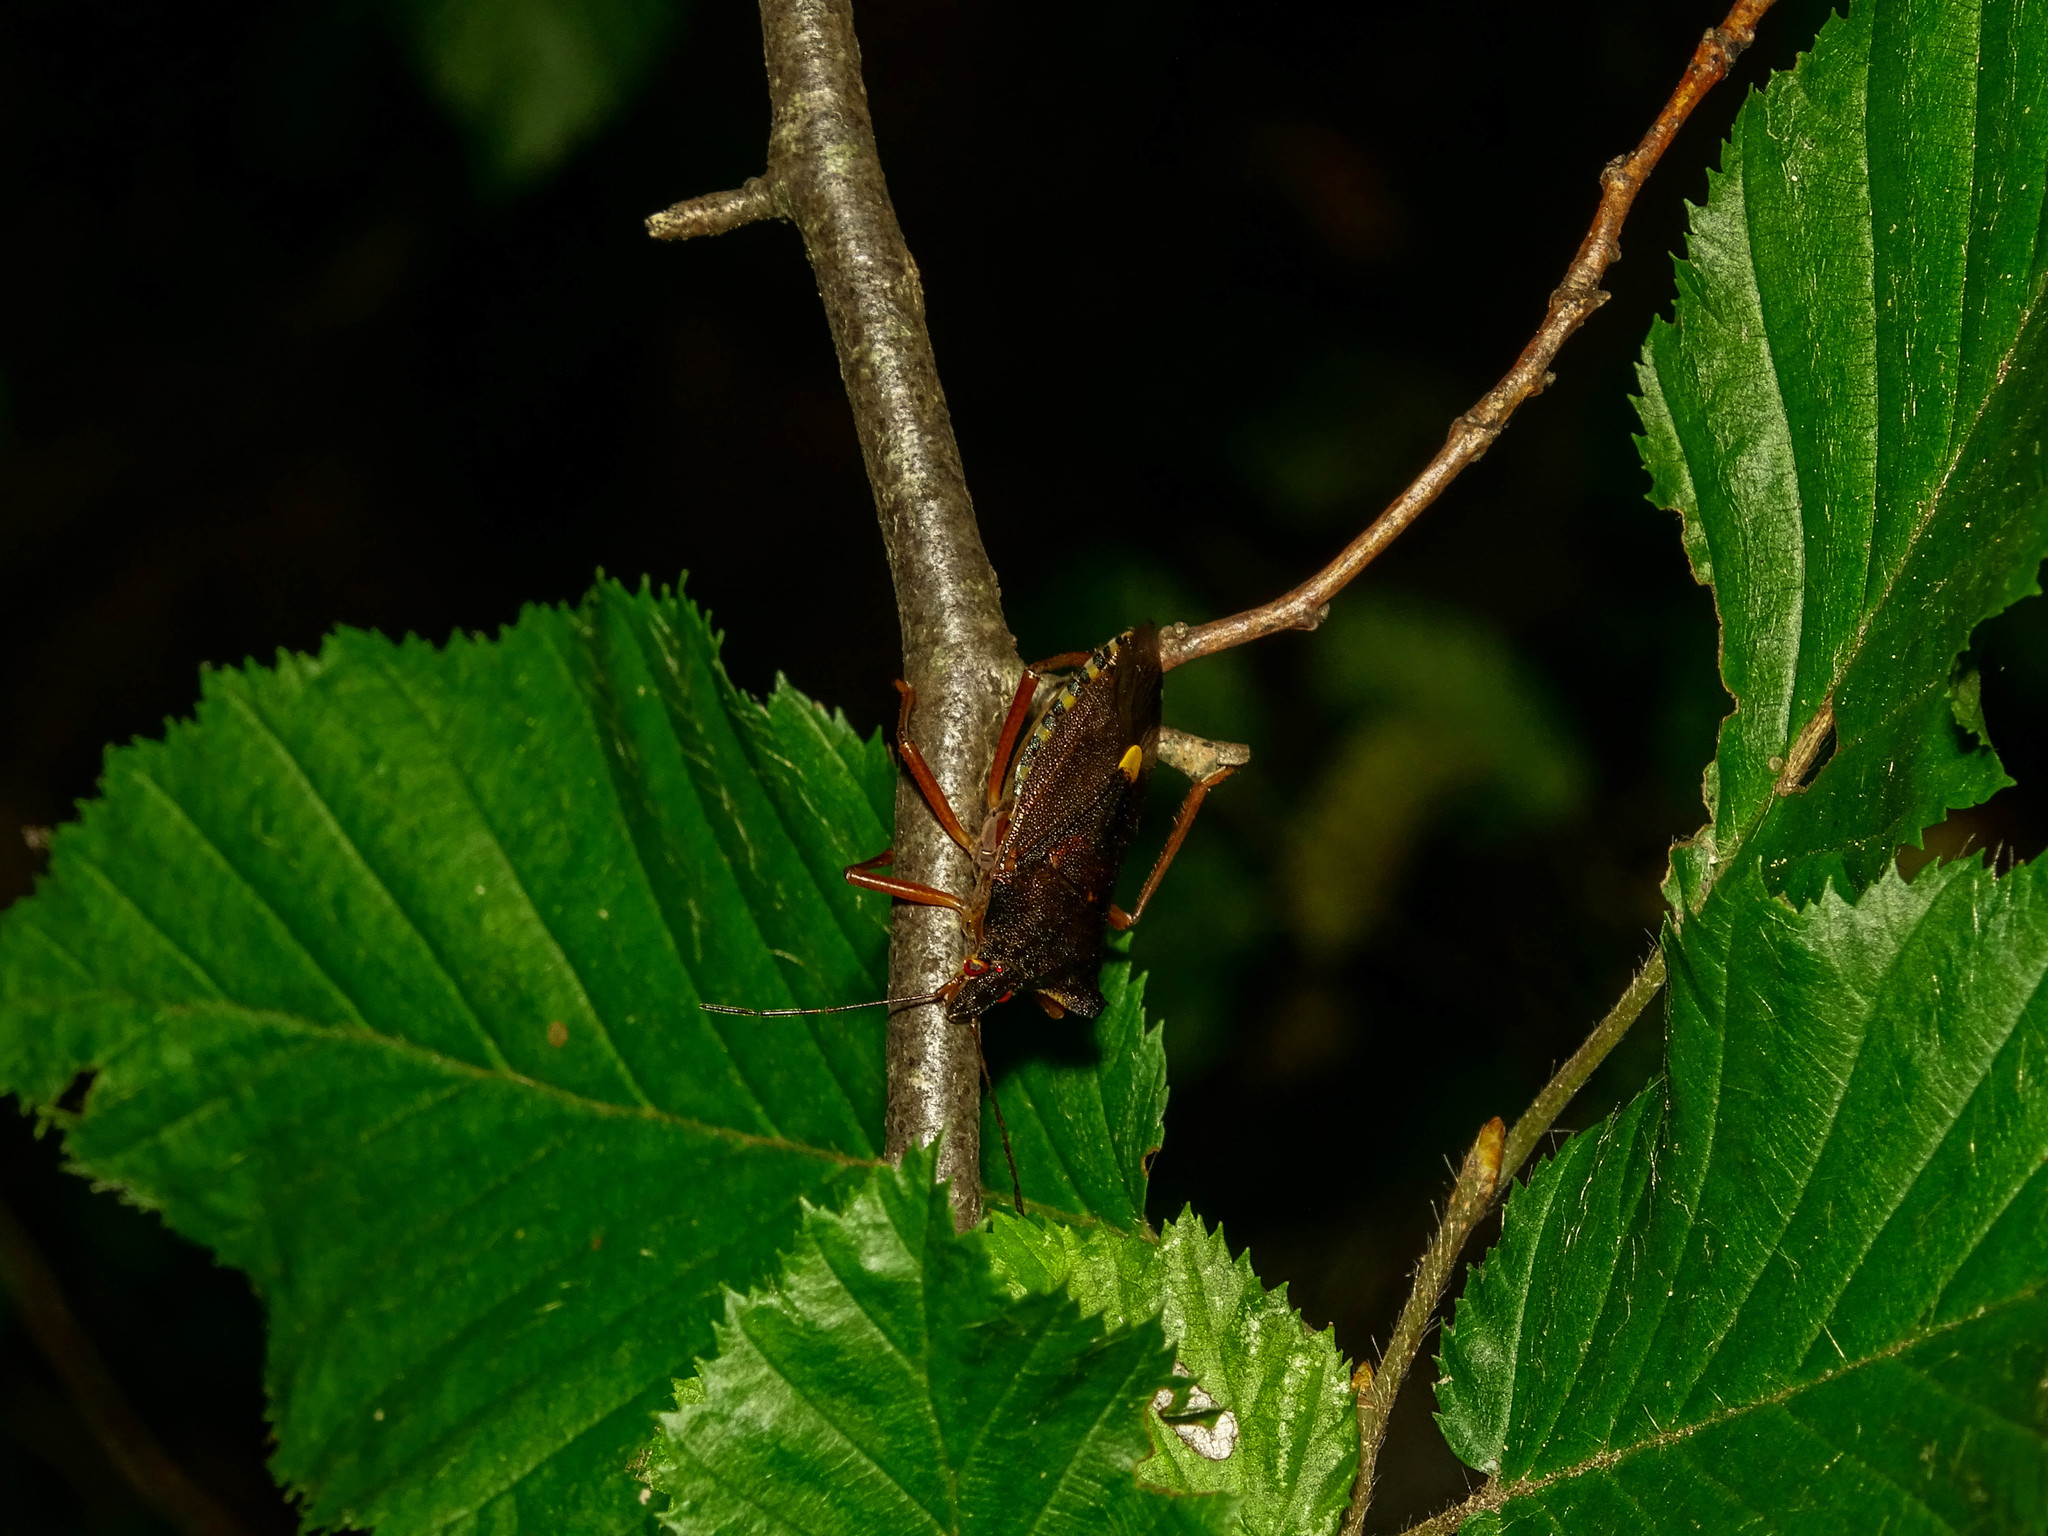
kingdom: Animalia
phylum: Arthropoda
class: Insecta
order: Hemiptera
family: Pentatomidae
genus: Pentatoma
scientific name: Pentatoma rufipes
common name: Forest bug
